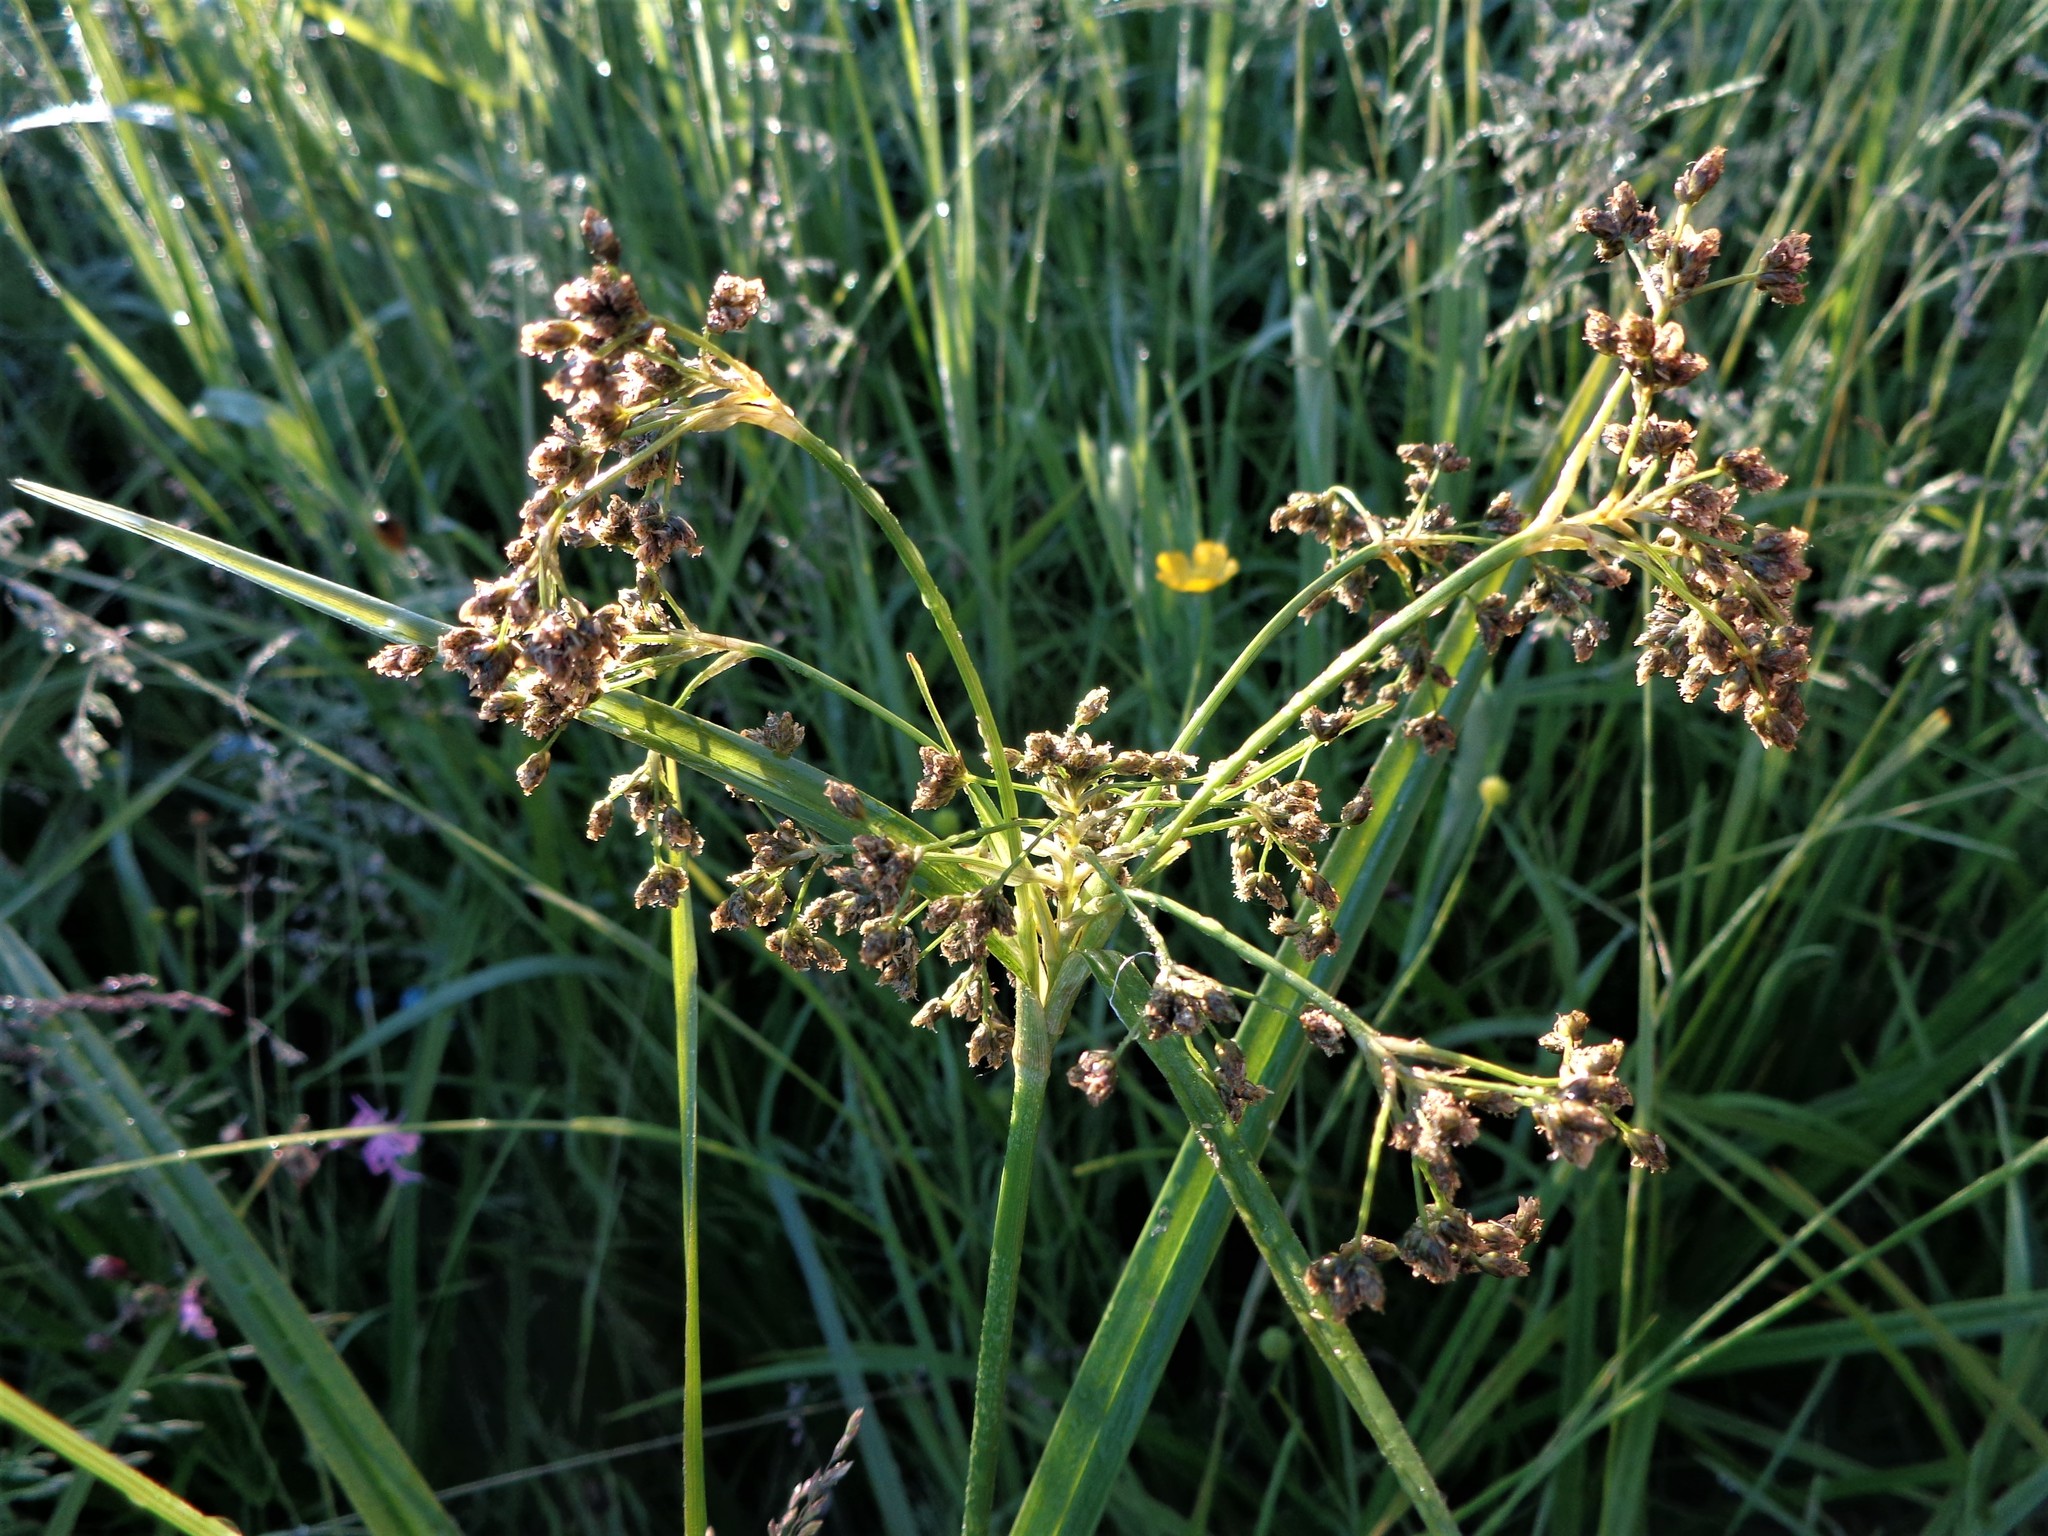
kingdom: Plantae
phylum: Tracheophyta
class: Liliopsida
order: Poales
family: Cyperaceae
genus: Scirpus
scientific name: Scirpus sylvaticus
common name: Wood club-rush
